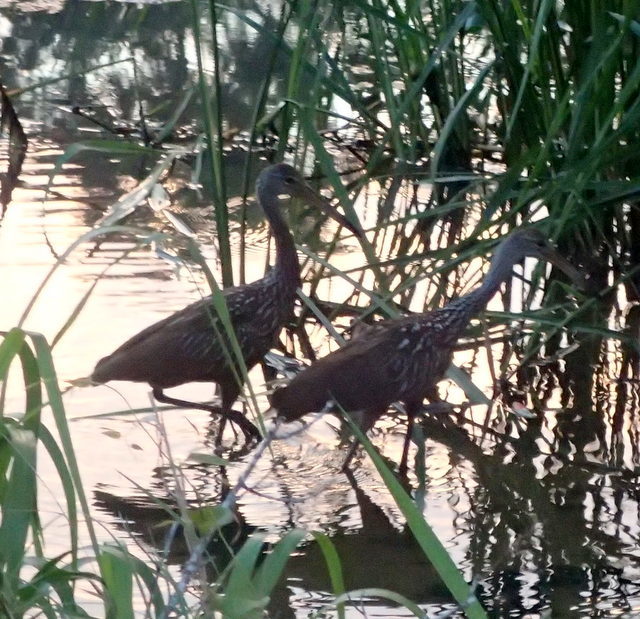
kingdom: Animalia
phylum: Chordata
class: Aves
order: Gruiformes
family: Aramidae
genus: Aramus
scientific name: Aramus guarauna
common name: Limpkin
